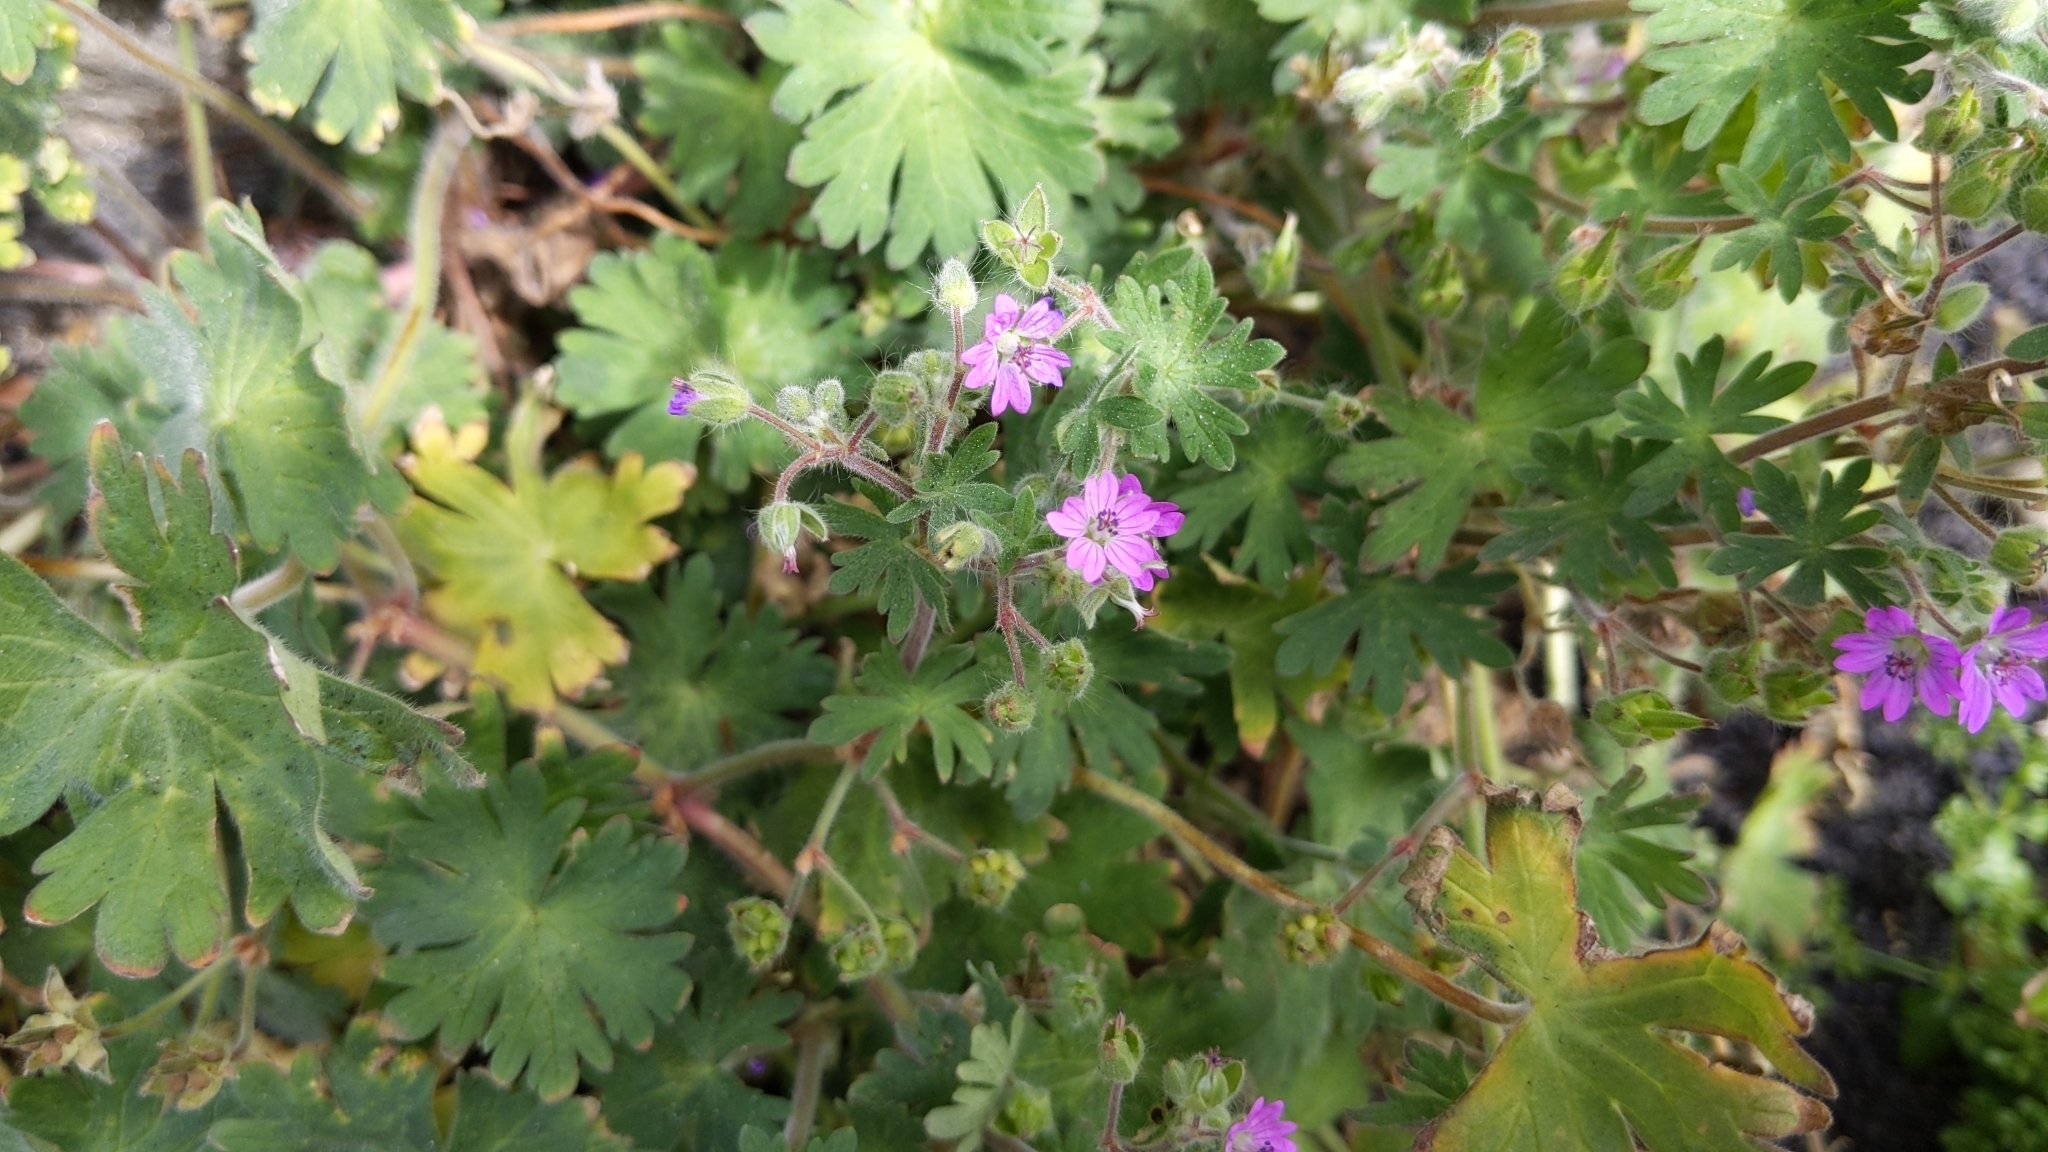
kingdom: Plantae
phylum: Tracheophyta
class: Magnoliopsida
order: Geraniales
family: Geraniaceae
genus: Geranium
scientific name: Geranium molle
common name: Dove's-foot crane's-bill
